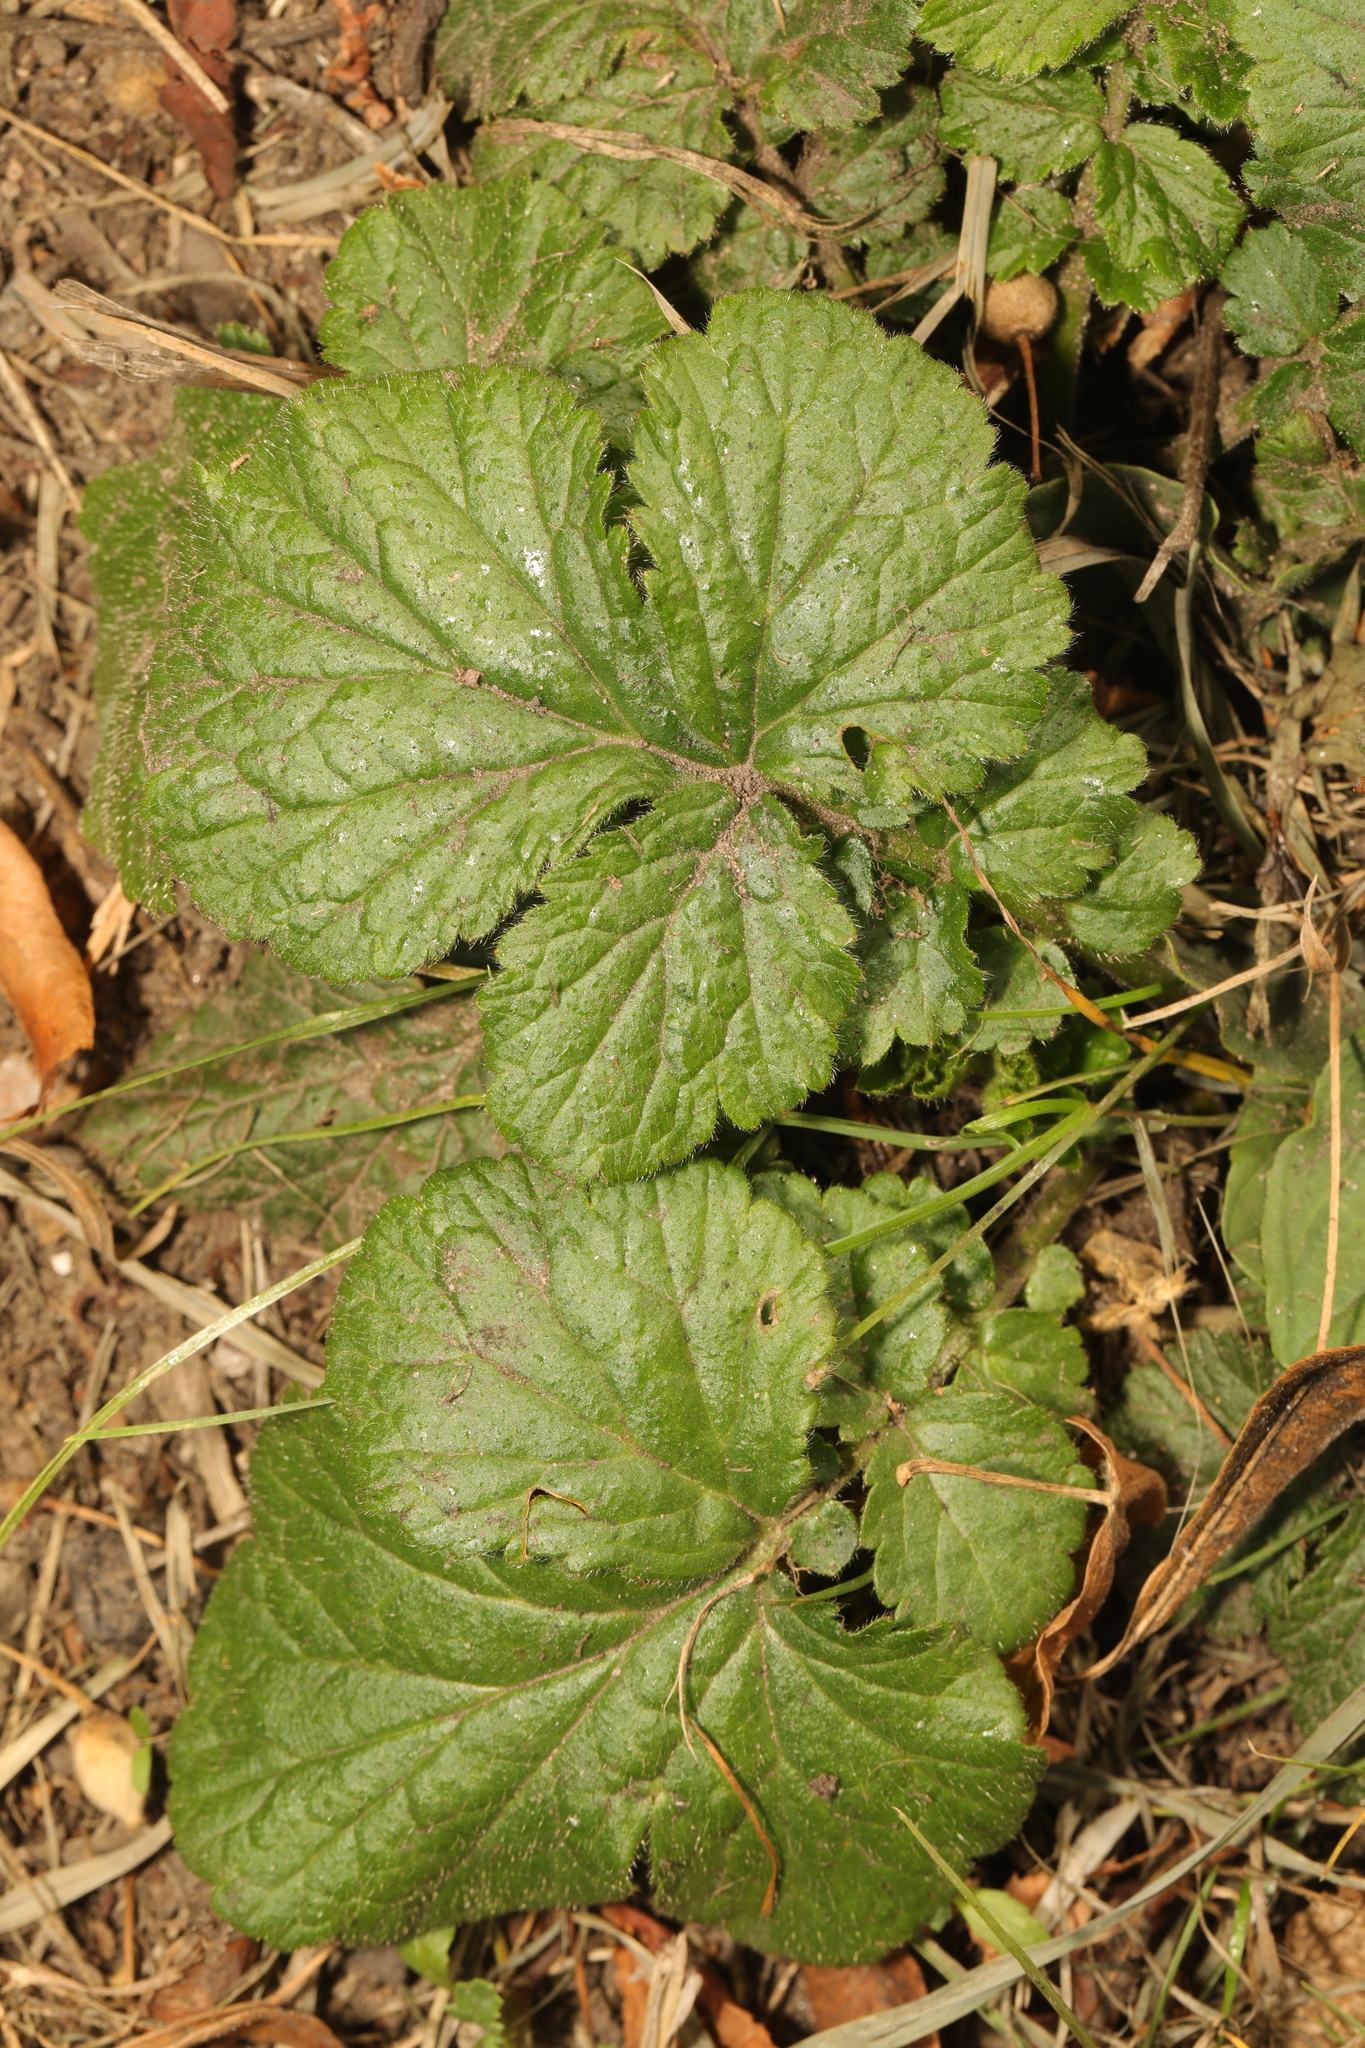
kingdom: Plantae
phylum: Tracheophyta
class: Magnoliopsida
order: Rosales
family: Rosaceae
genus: Geum
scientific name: Geum urbanum
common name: Wood avens
